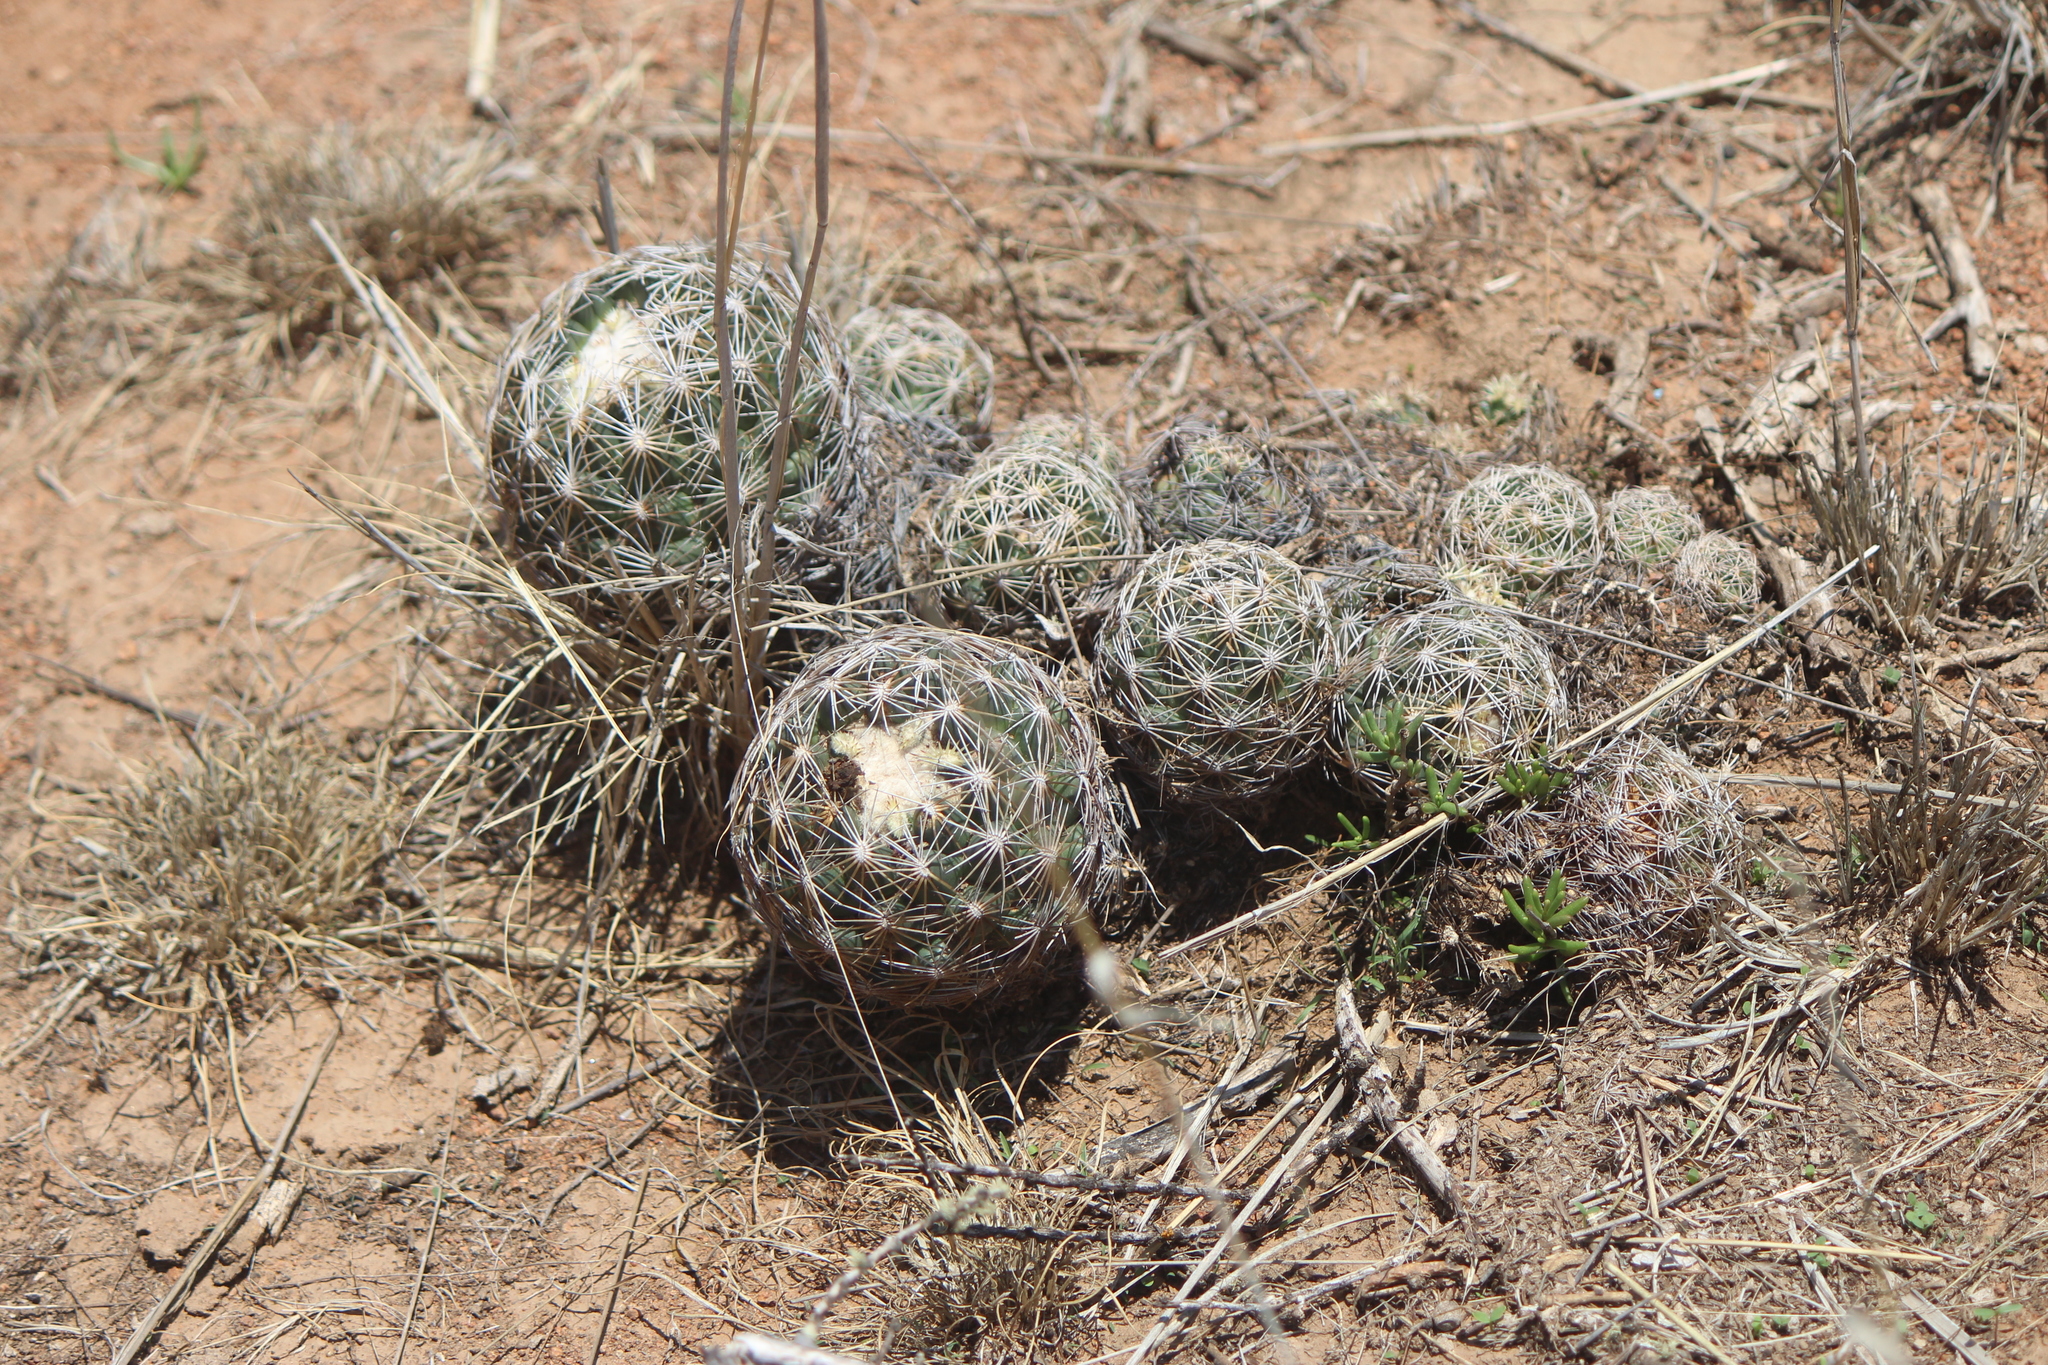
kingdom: Plantae
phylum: Tracheophyta
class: Magnoliopsida
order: Caryophyllales
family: Cactaceae
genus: Coryphantha
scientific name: Coryphantha cornifera
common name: Rhinoceros cactus
